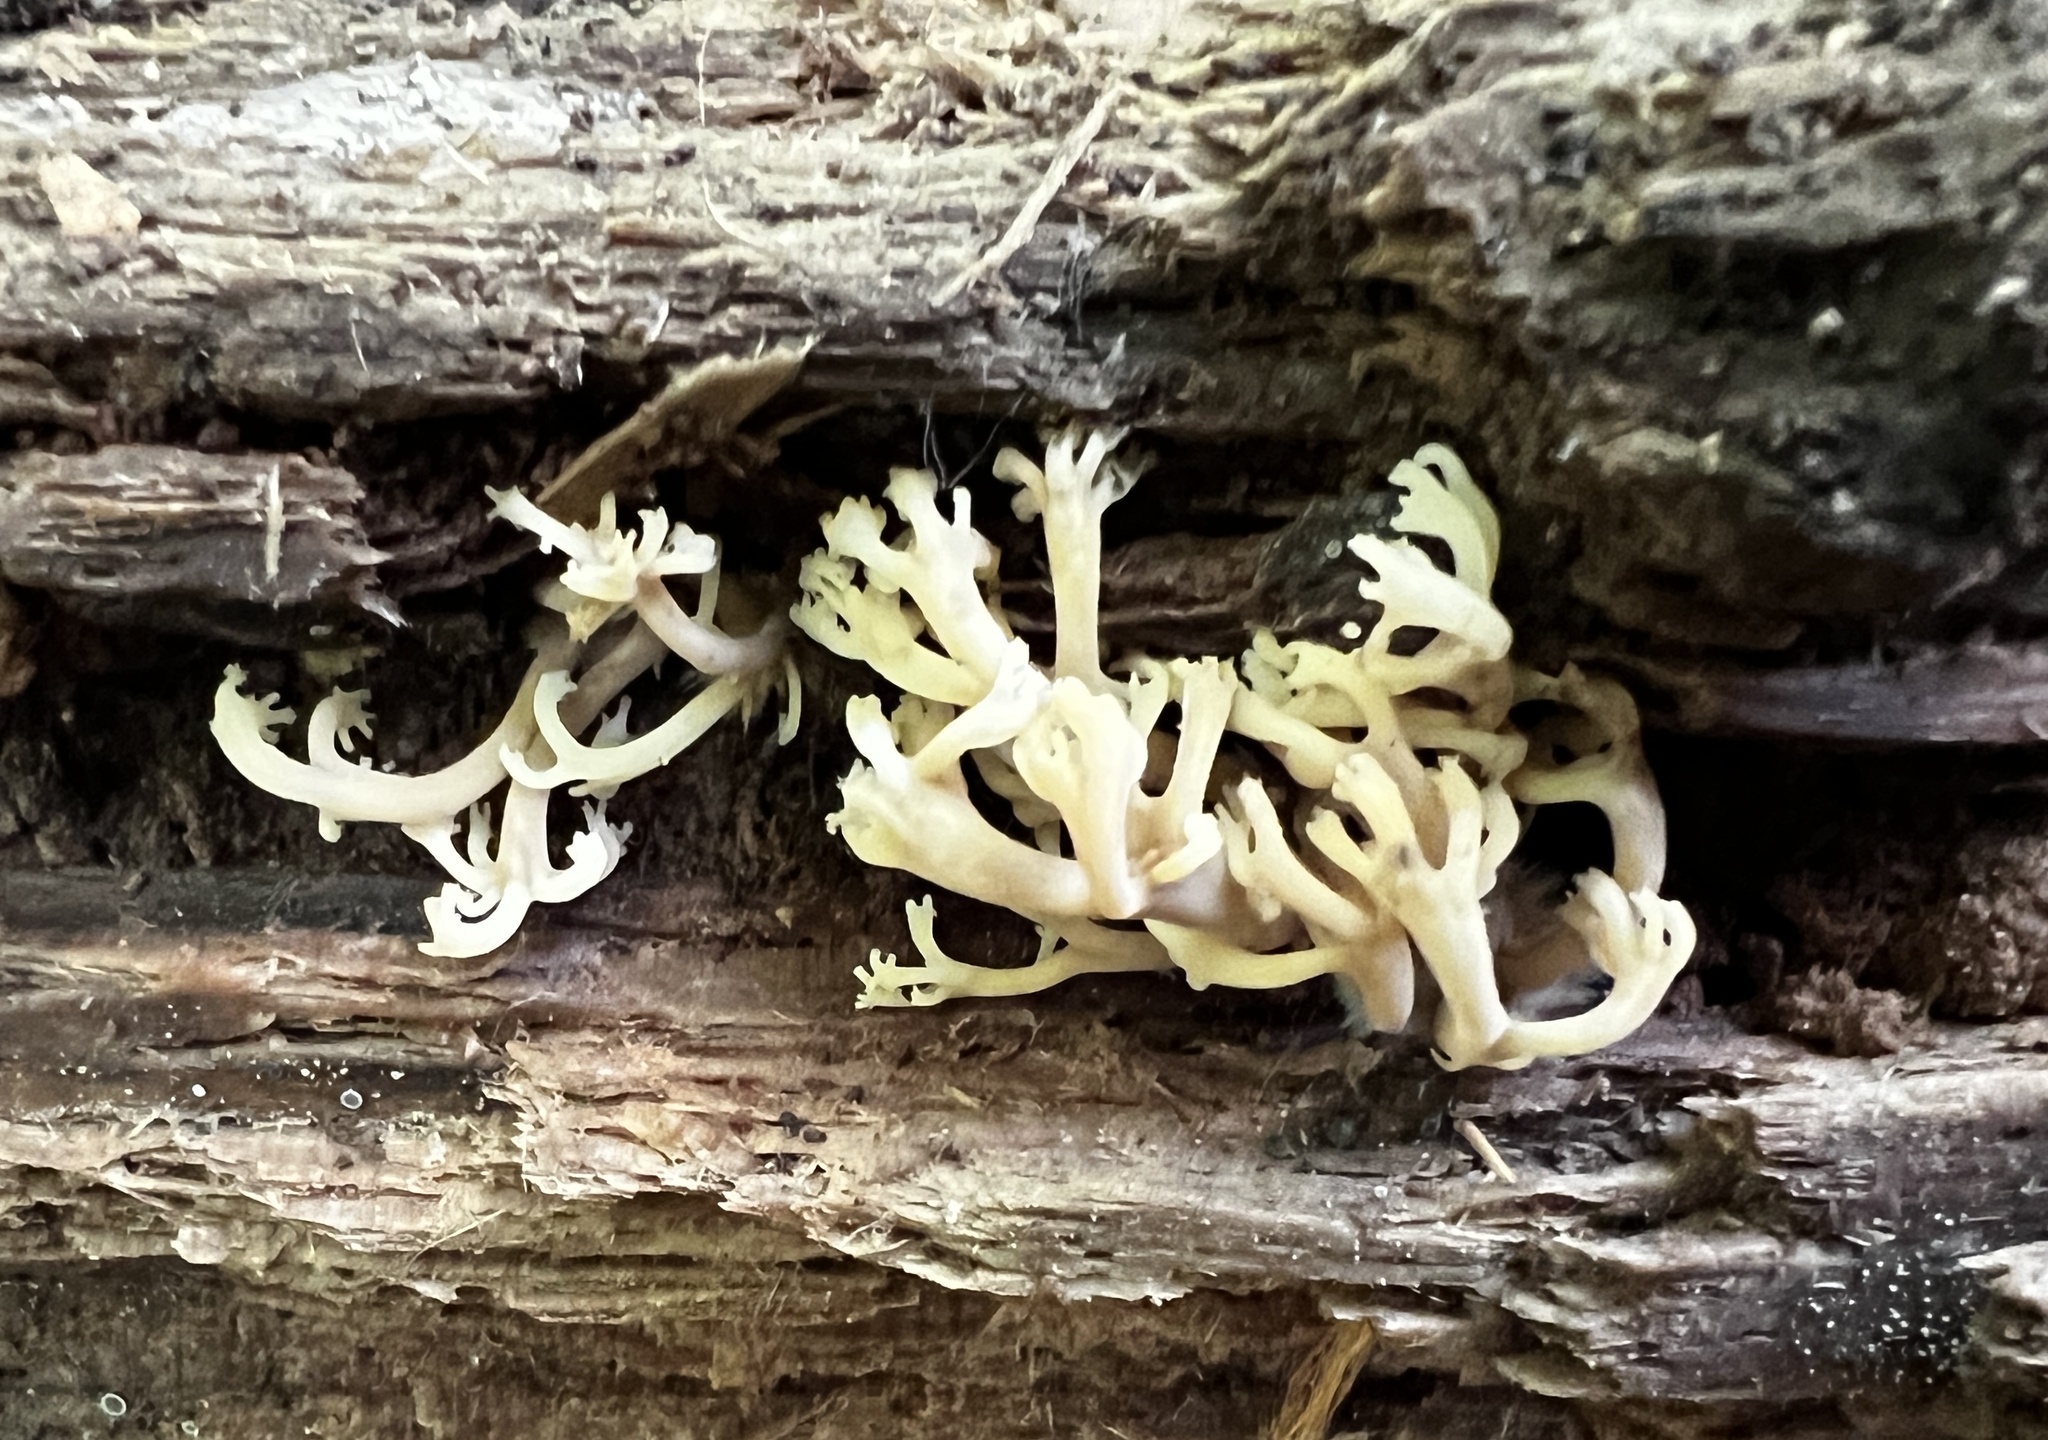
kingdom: Fungi
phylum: Basidiomycota
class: Agaricomycetes
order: Russulales
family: Auriscalpiaceae
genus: Artomyces
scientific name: Artomyces pyxidatus
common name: Crown-tipped coral fungus
